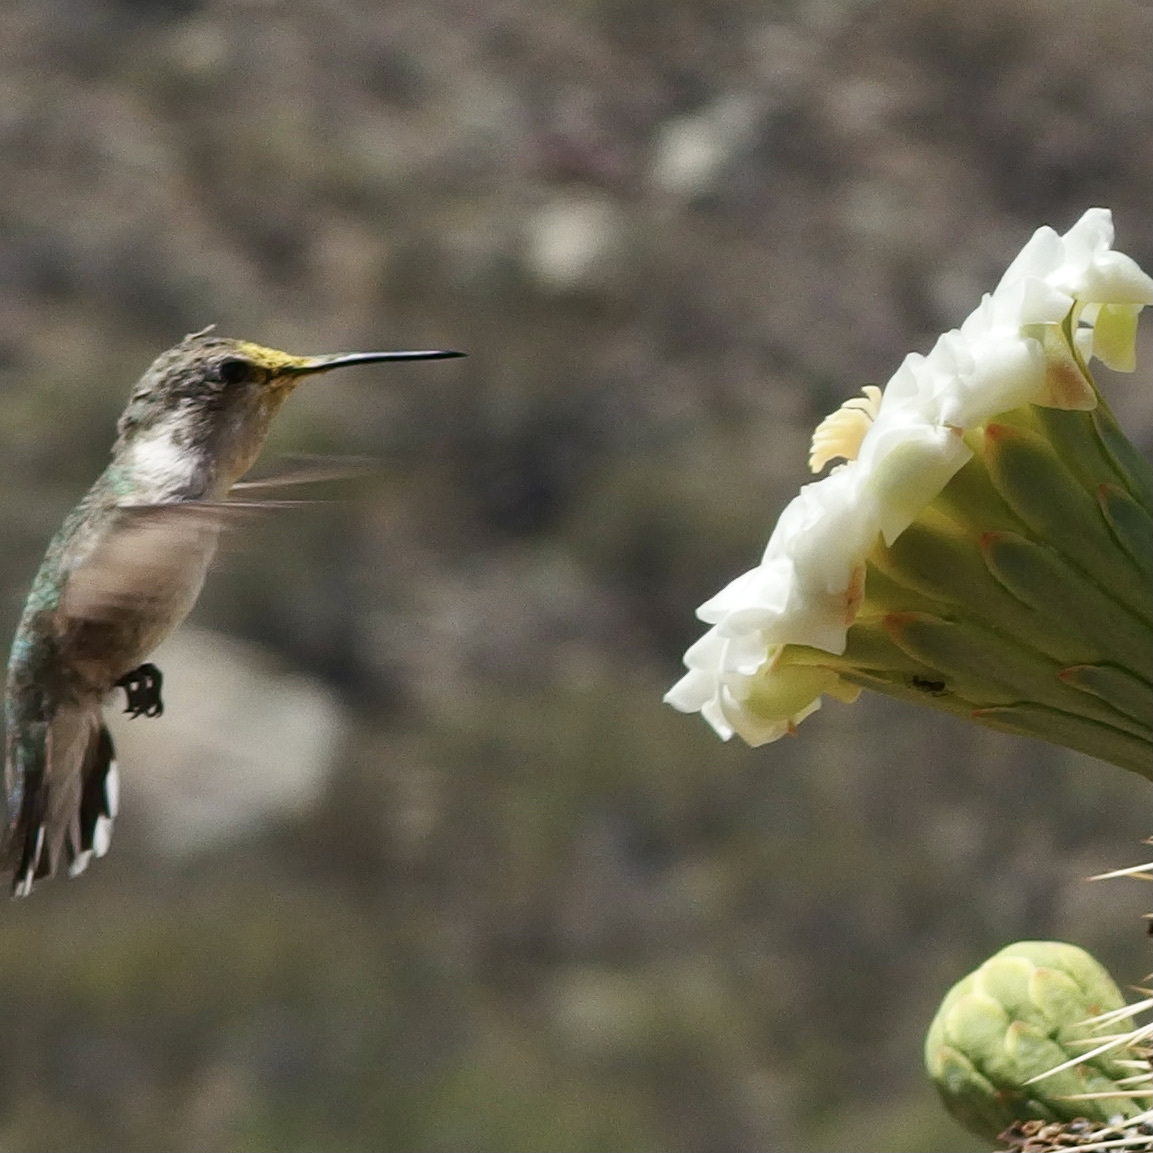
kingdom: Animalia
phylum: Chordata
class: Aves
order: Apodiformes
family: Trochilidae
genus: Calypte
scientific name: Calypte costae
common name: Costa's hummingbird
